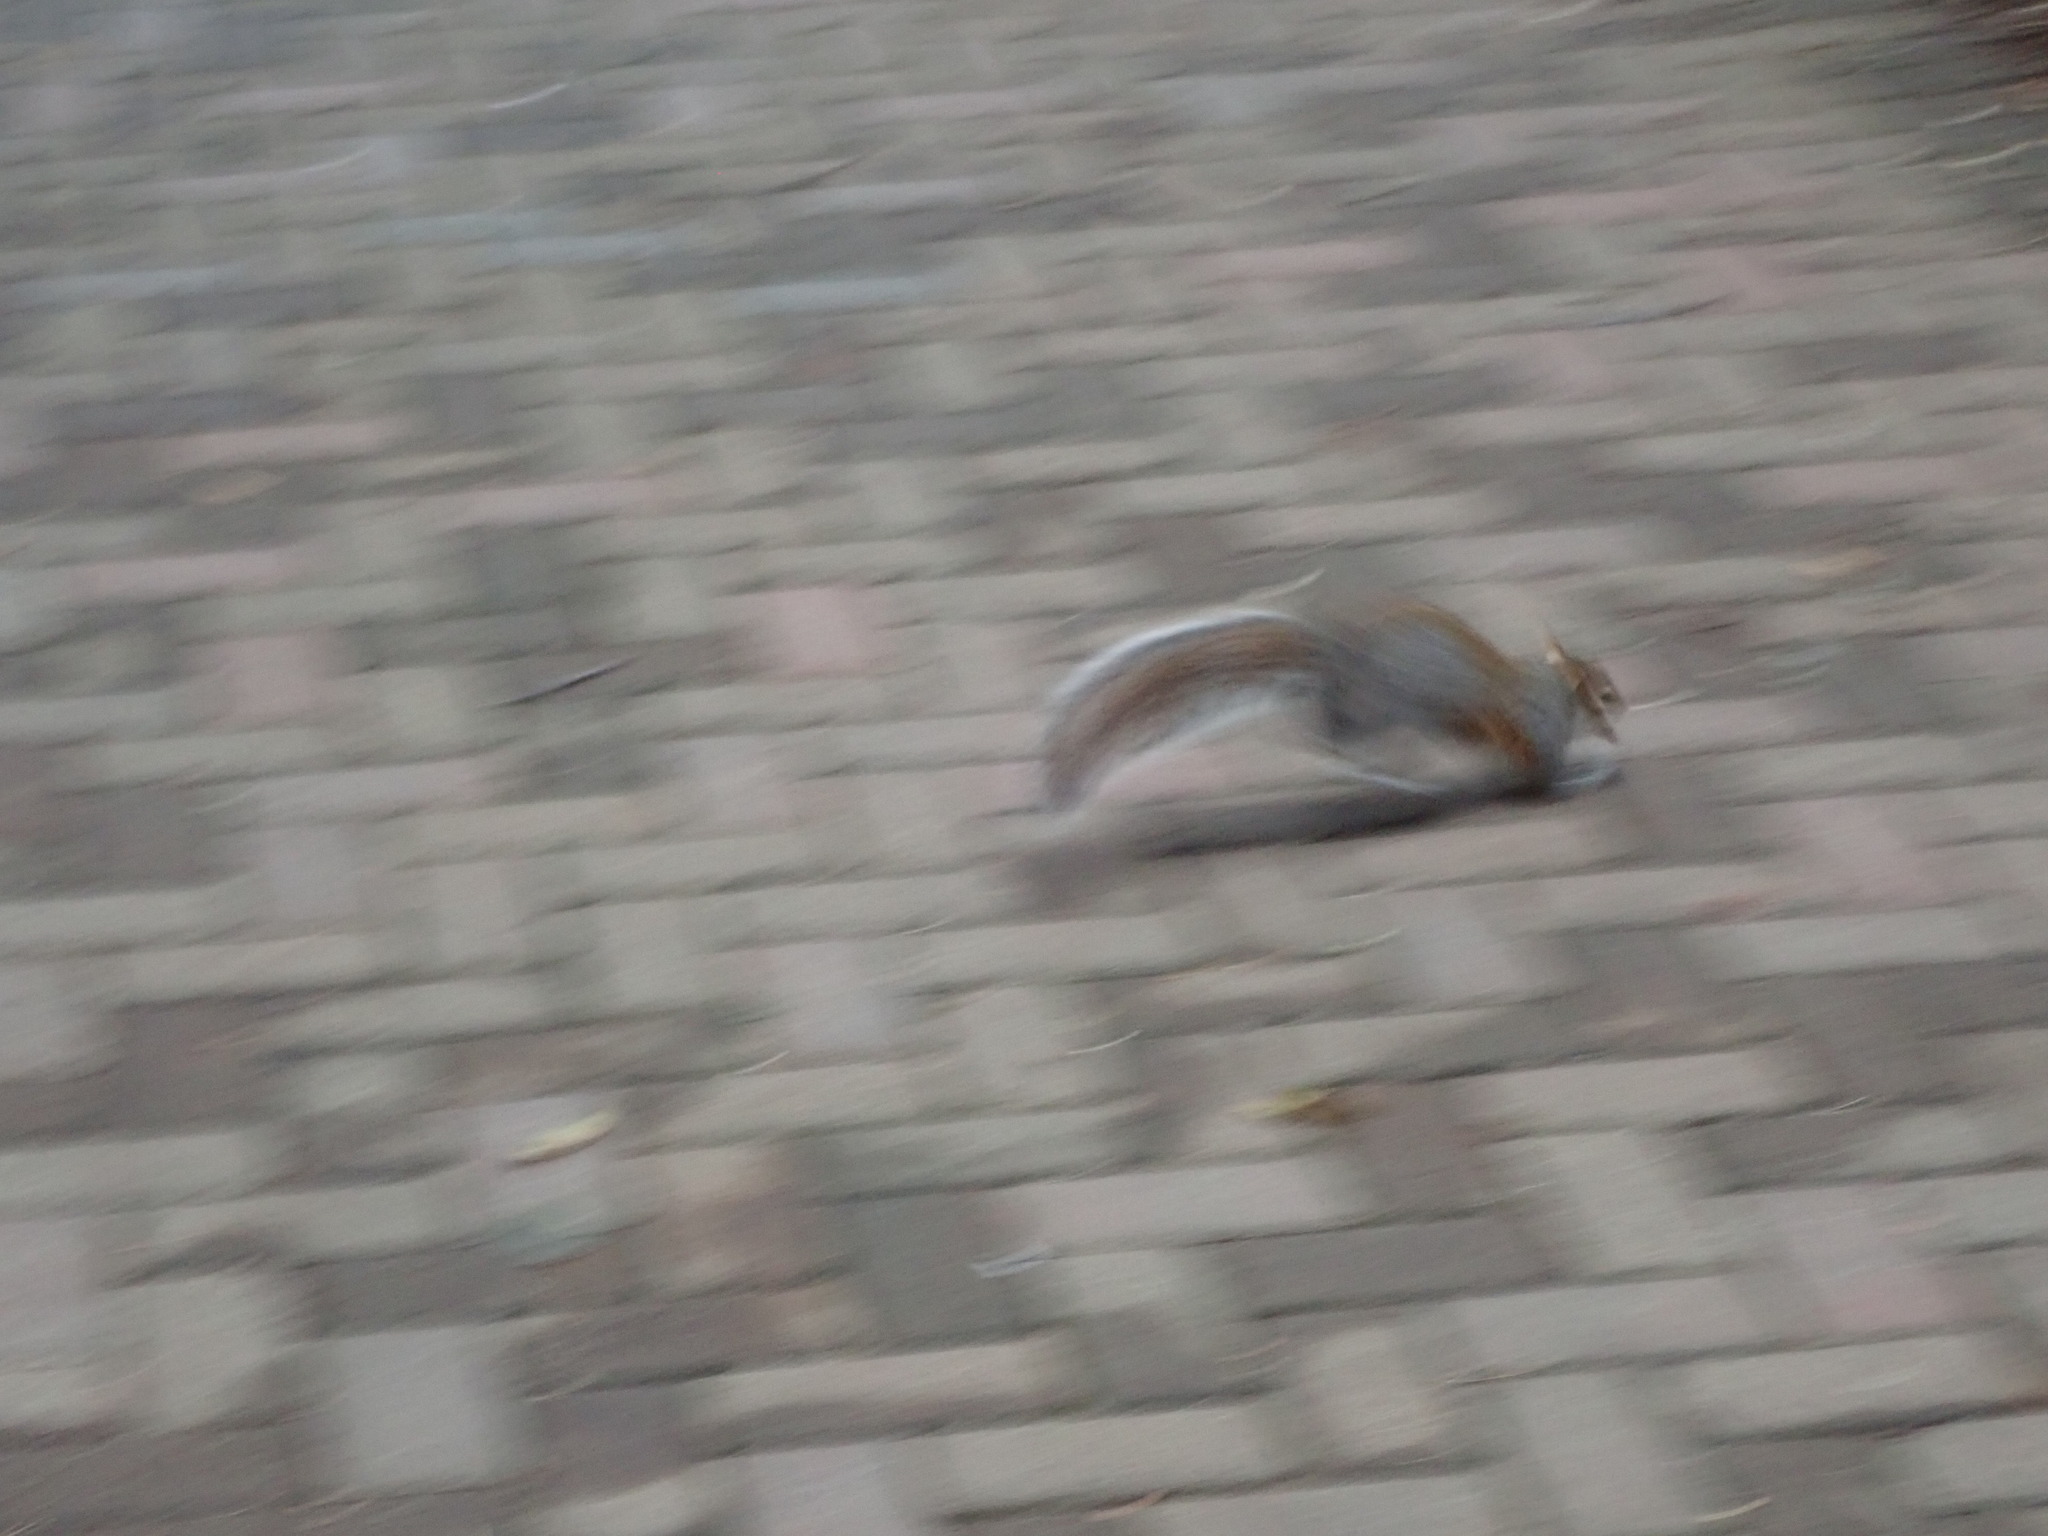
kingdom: Animalia
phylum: Chordata
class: Mammalia
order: Rodentia
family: Sciuridae
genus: Sciurus
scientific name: Sciurus carolinensis
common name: Eastern gray squirrel
